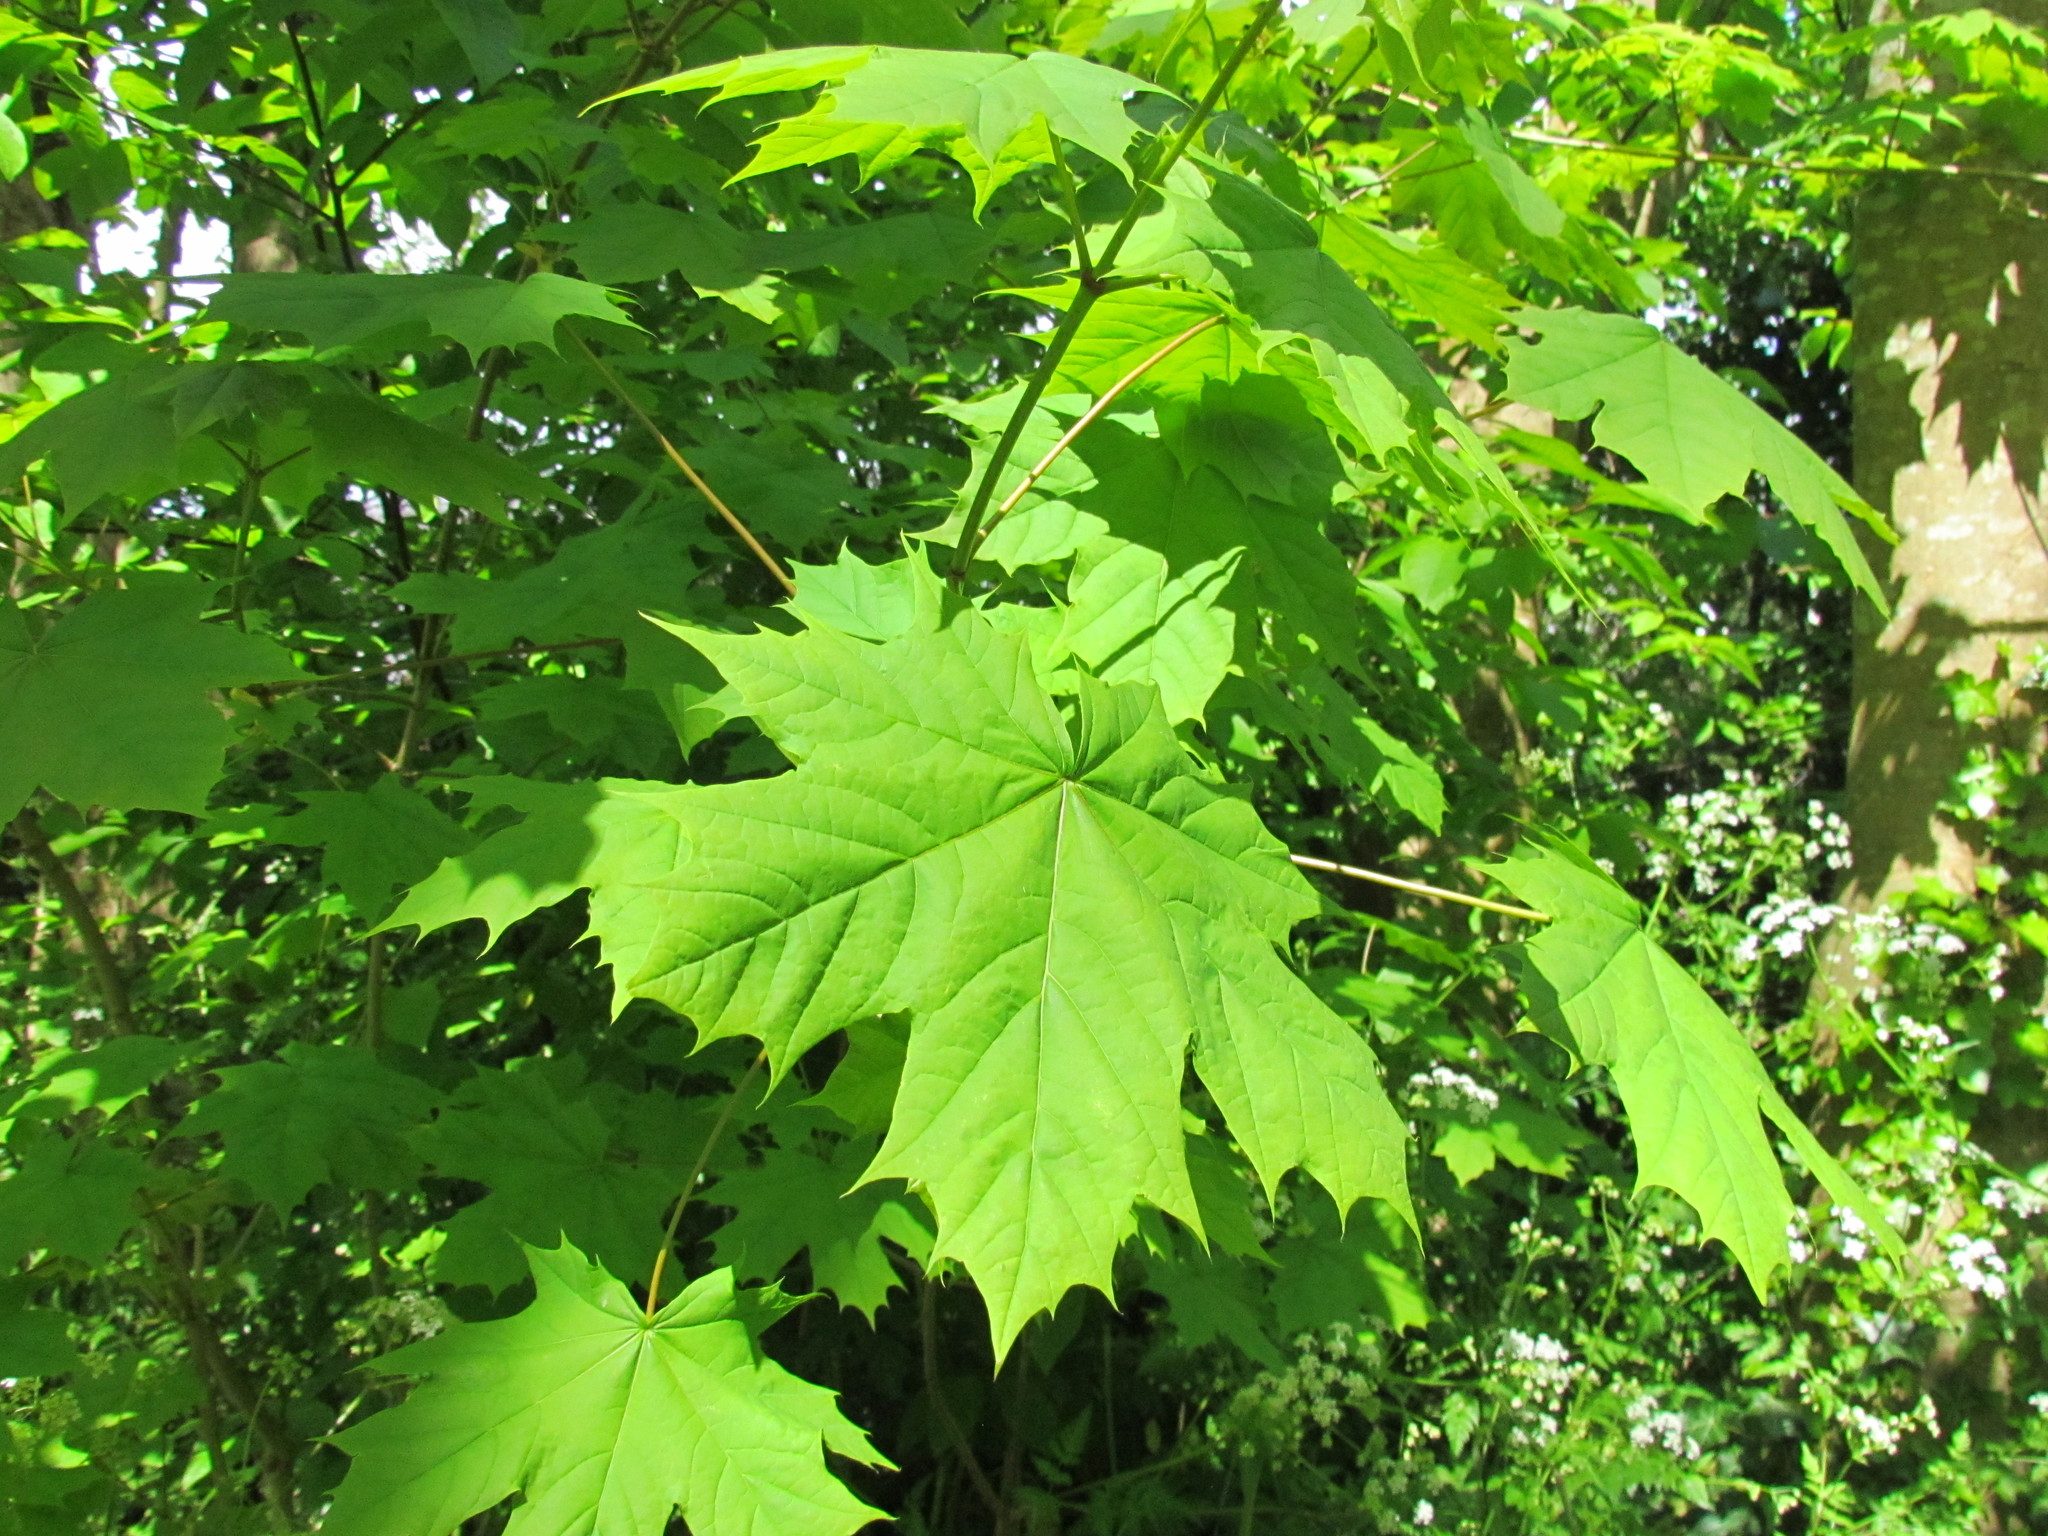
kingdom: Plantae
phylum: Tracheophyta
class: Magnoliopsida
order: Sapindales
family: Sapindaceae
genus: Acer
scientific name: Acer platanoides
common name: Norway maple
